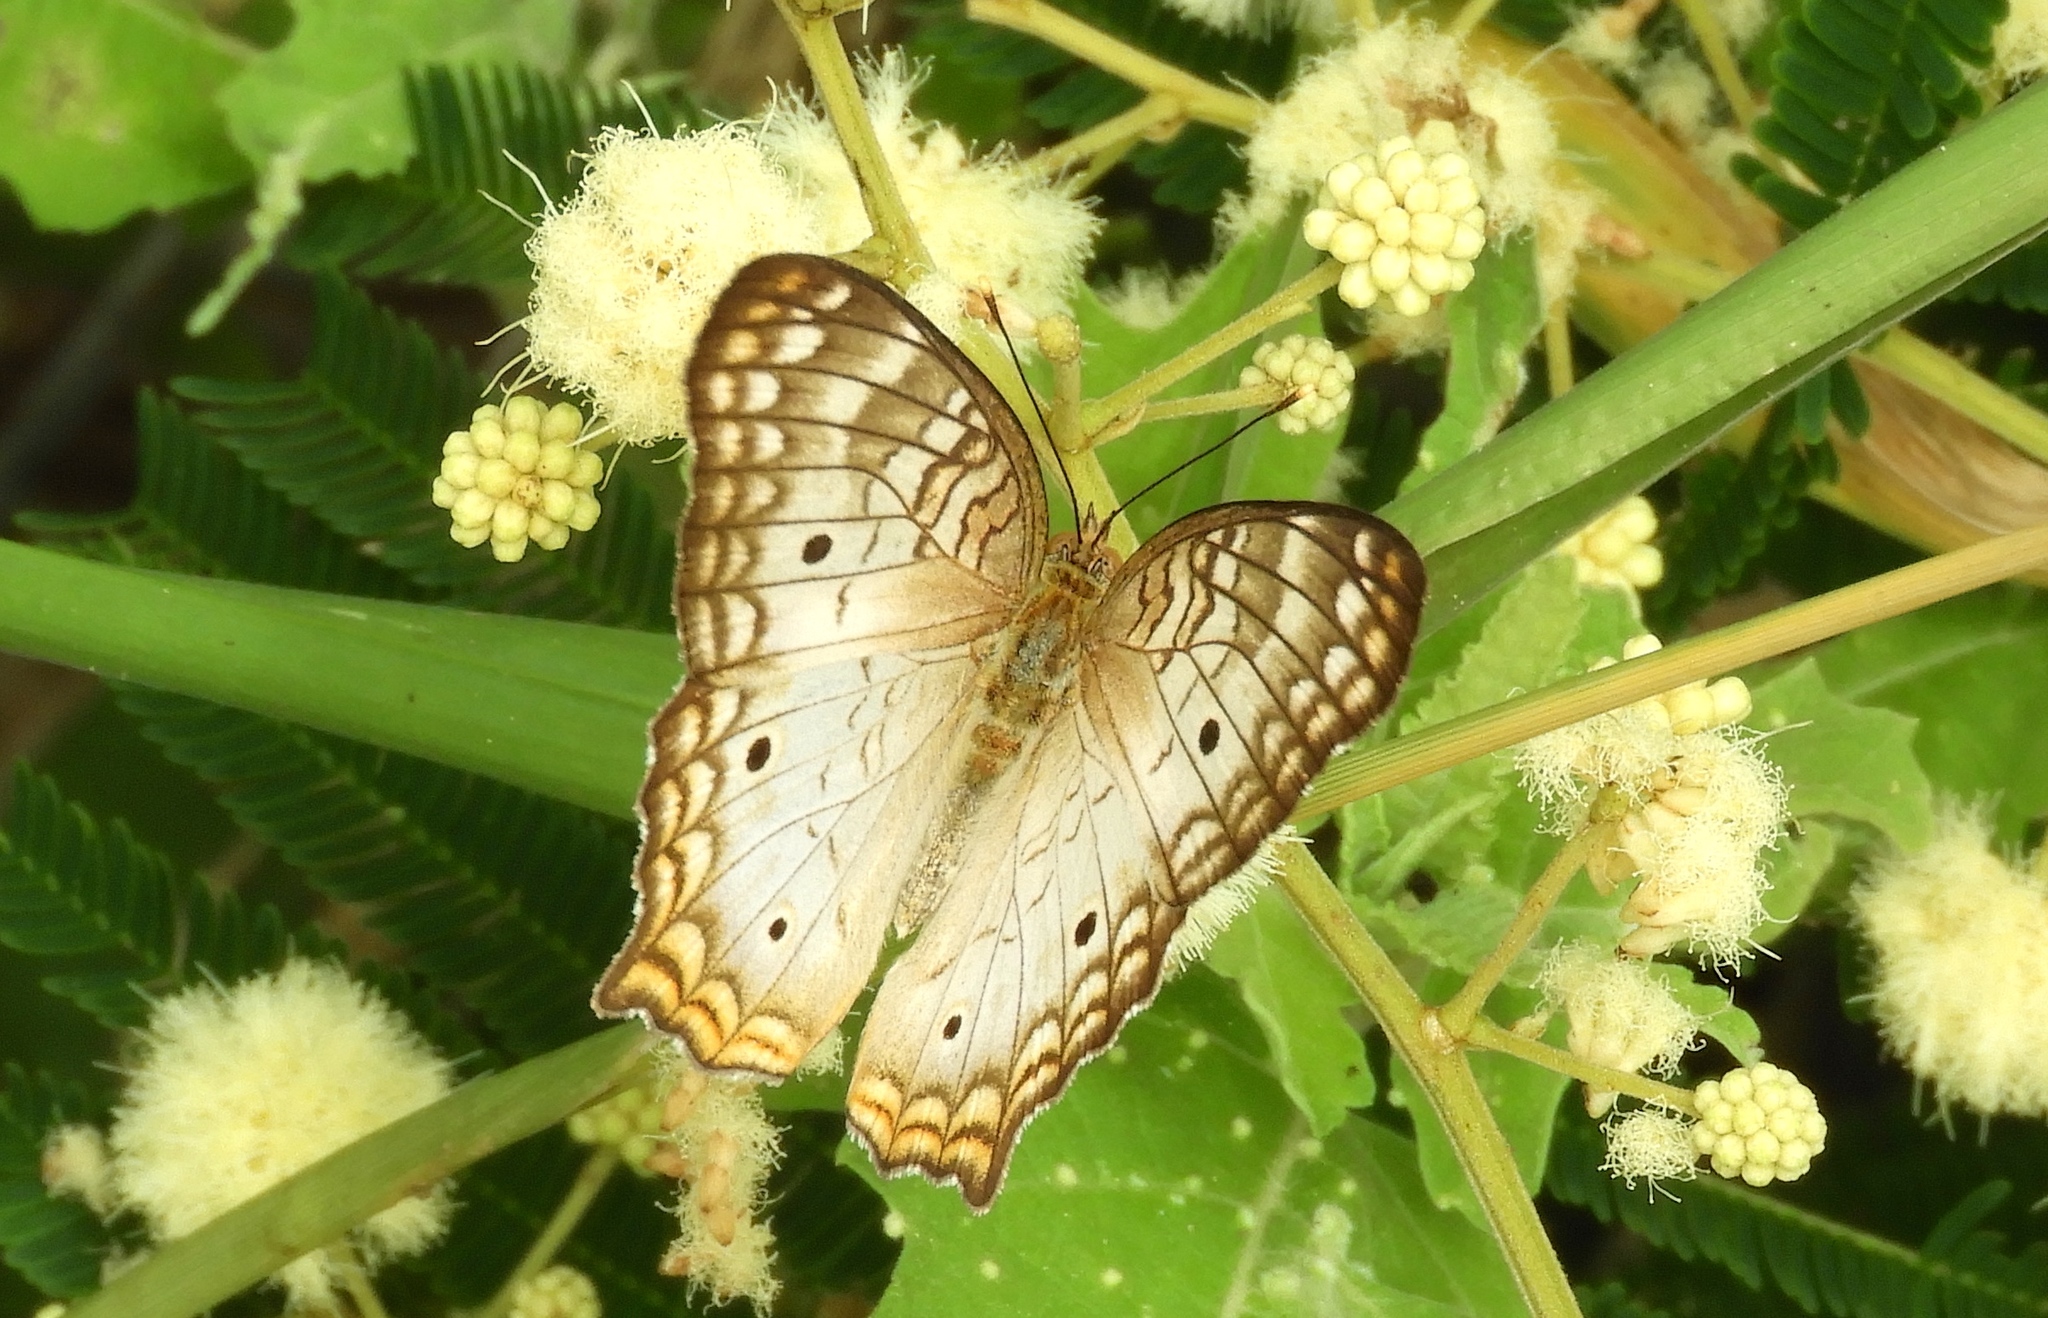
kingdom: Animalia
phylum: Arthropoda
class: Insecta
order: Lepidoptera
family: Nymphalidae
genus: Anartia
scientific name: Anartia jatrophae
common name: White peacock
